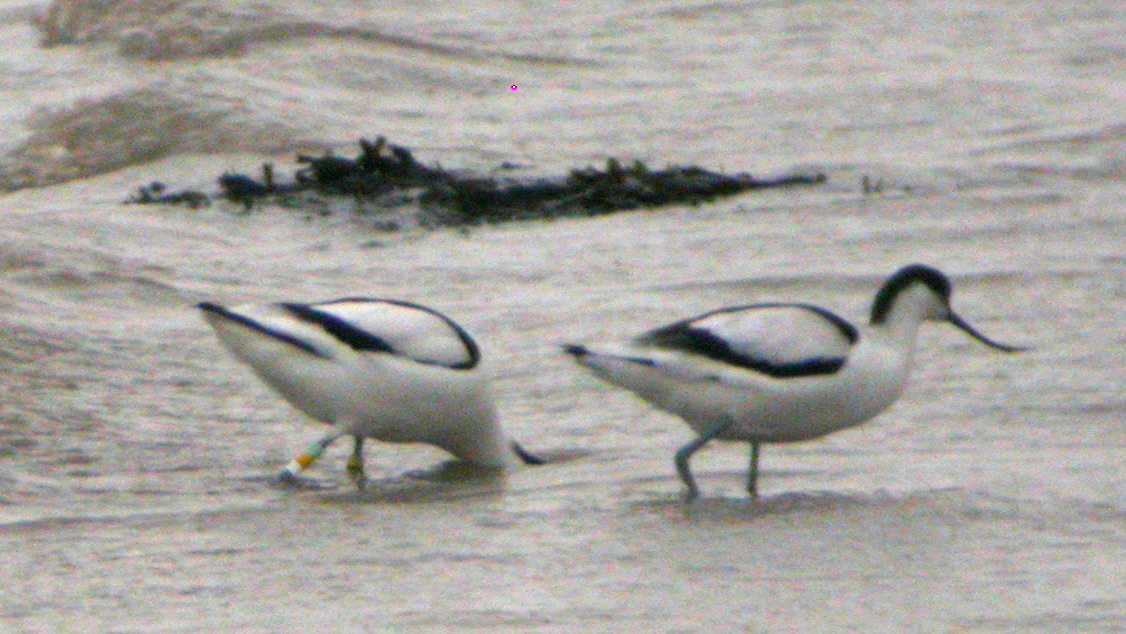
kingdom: Animalia
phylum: Chordata
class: Aves
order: Charadriiformes
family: Recurvirostridae
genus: Recurvirostra
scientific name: Recurvirostra avosetta
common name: Pied avocet
